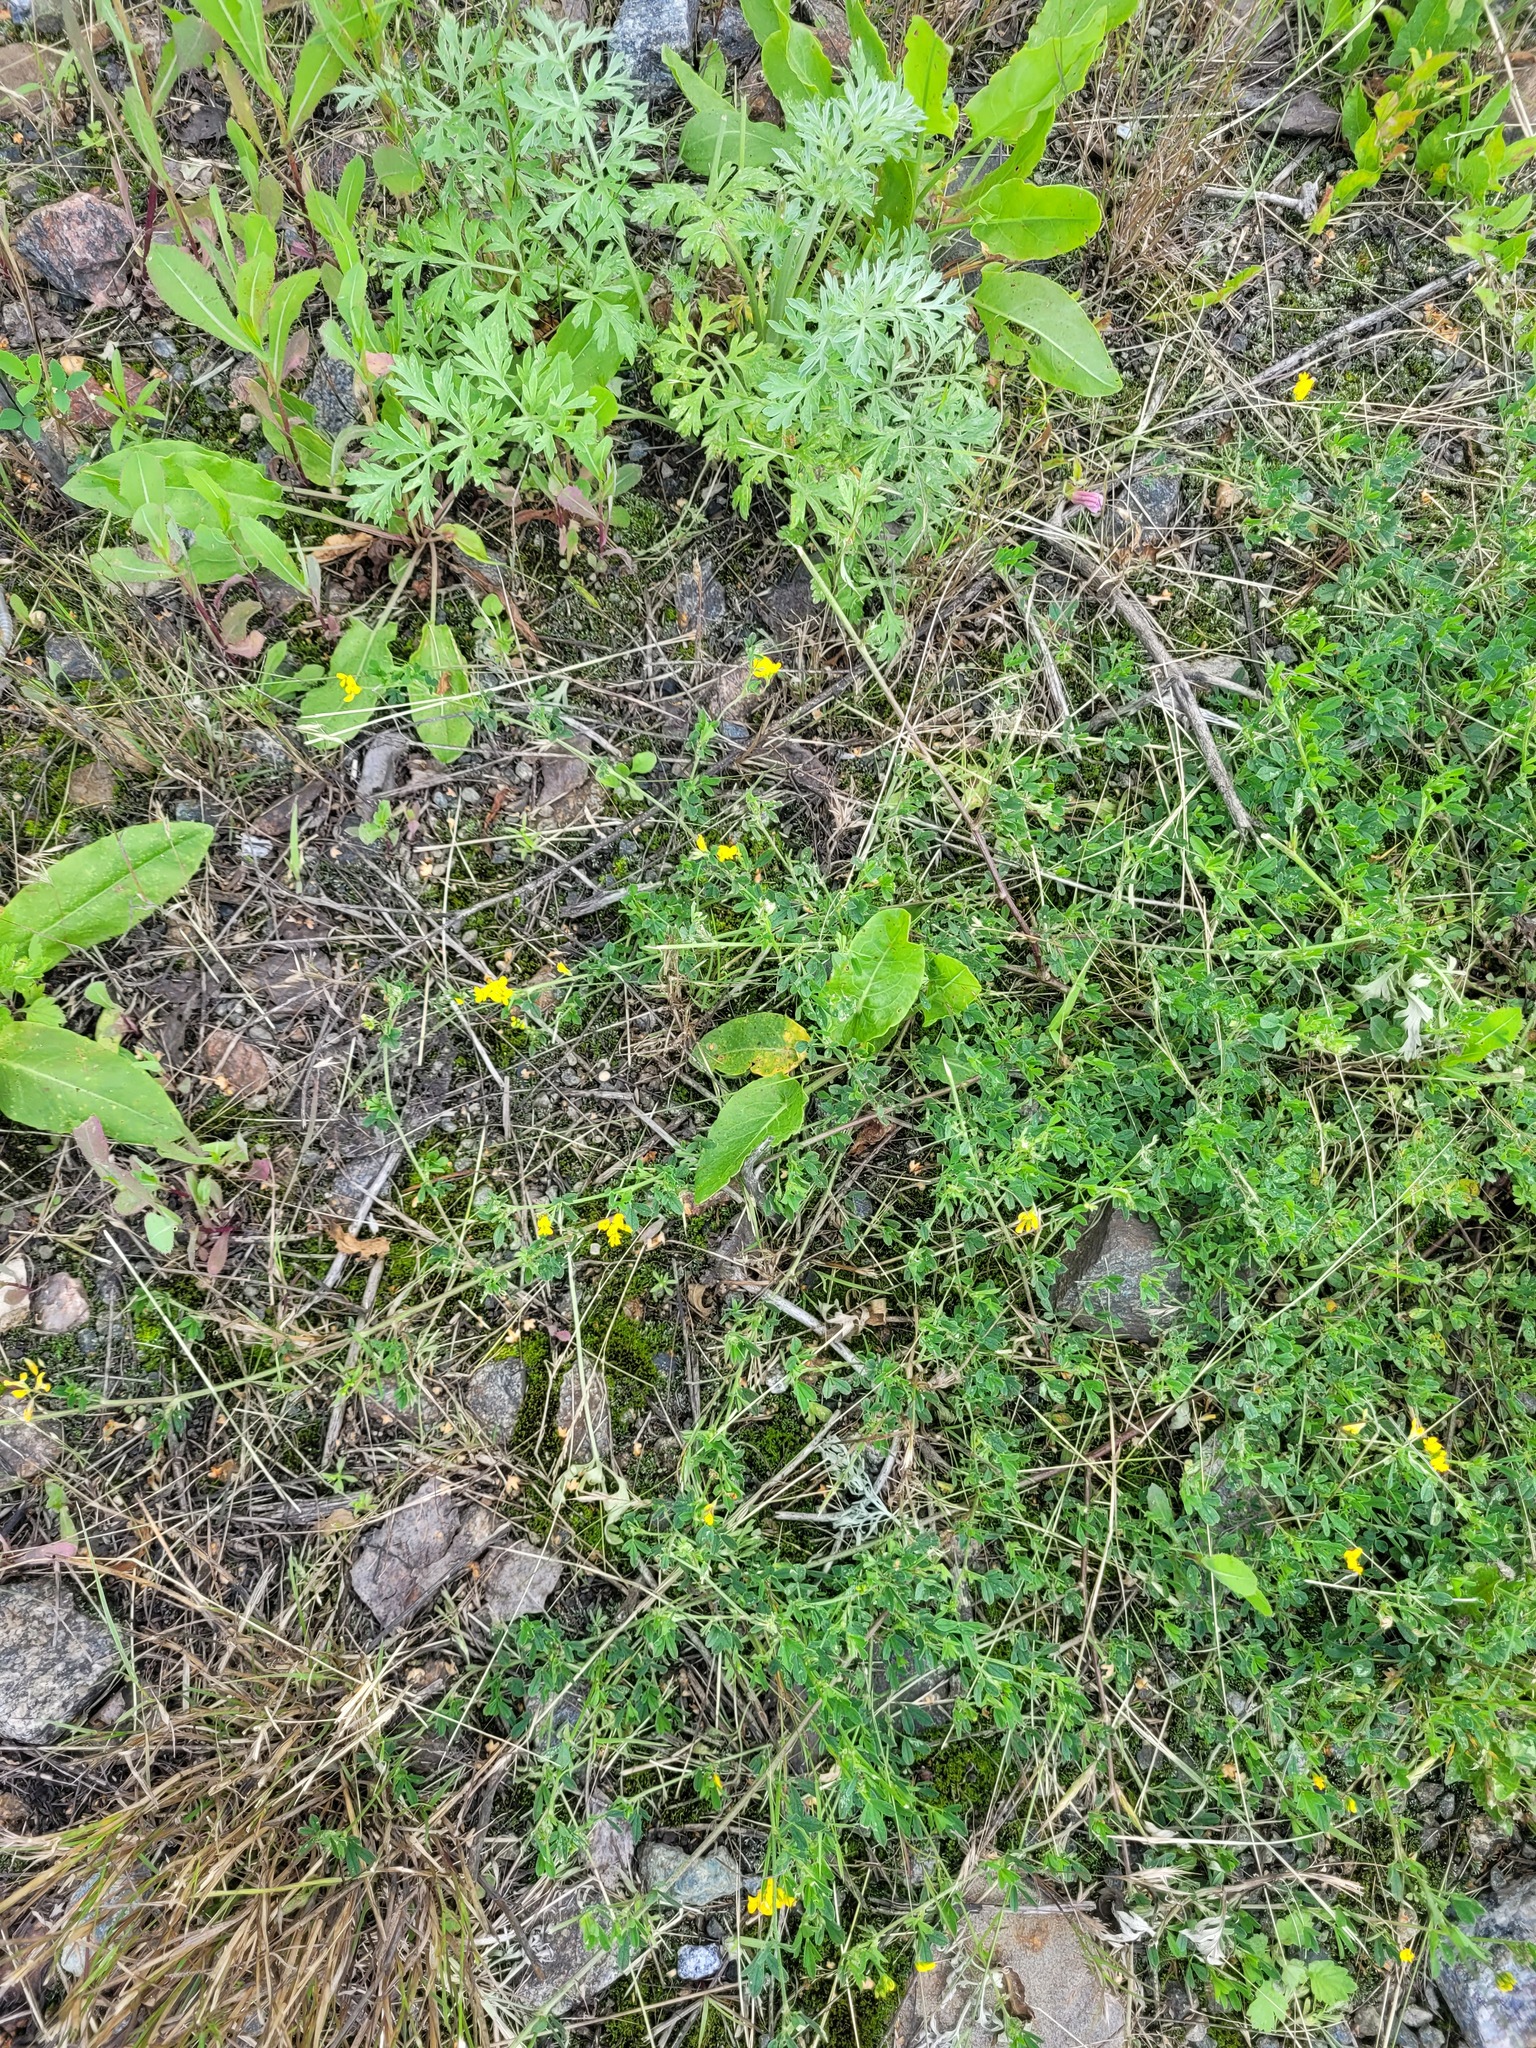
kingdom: Plantae
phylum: Tracheophyta
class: Magnoliopsida
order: Fabales
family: Fabaceae
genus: Medicago
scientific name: Medicago falcata
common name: Sickle medick
